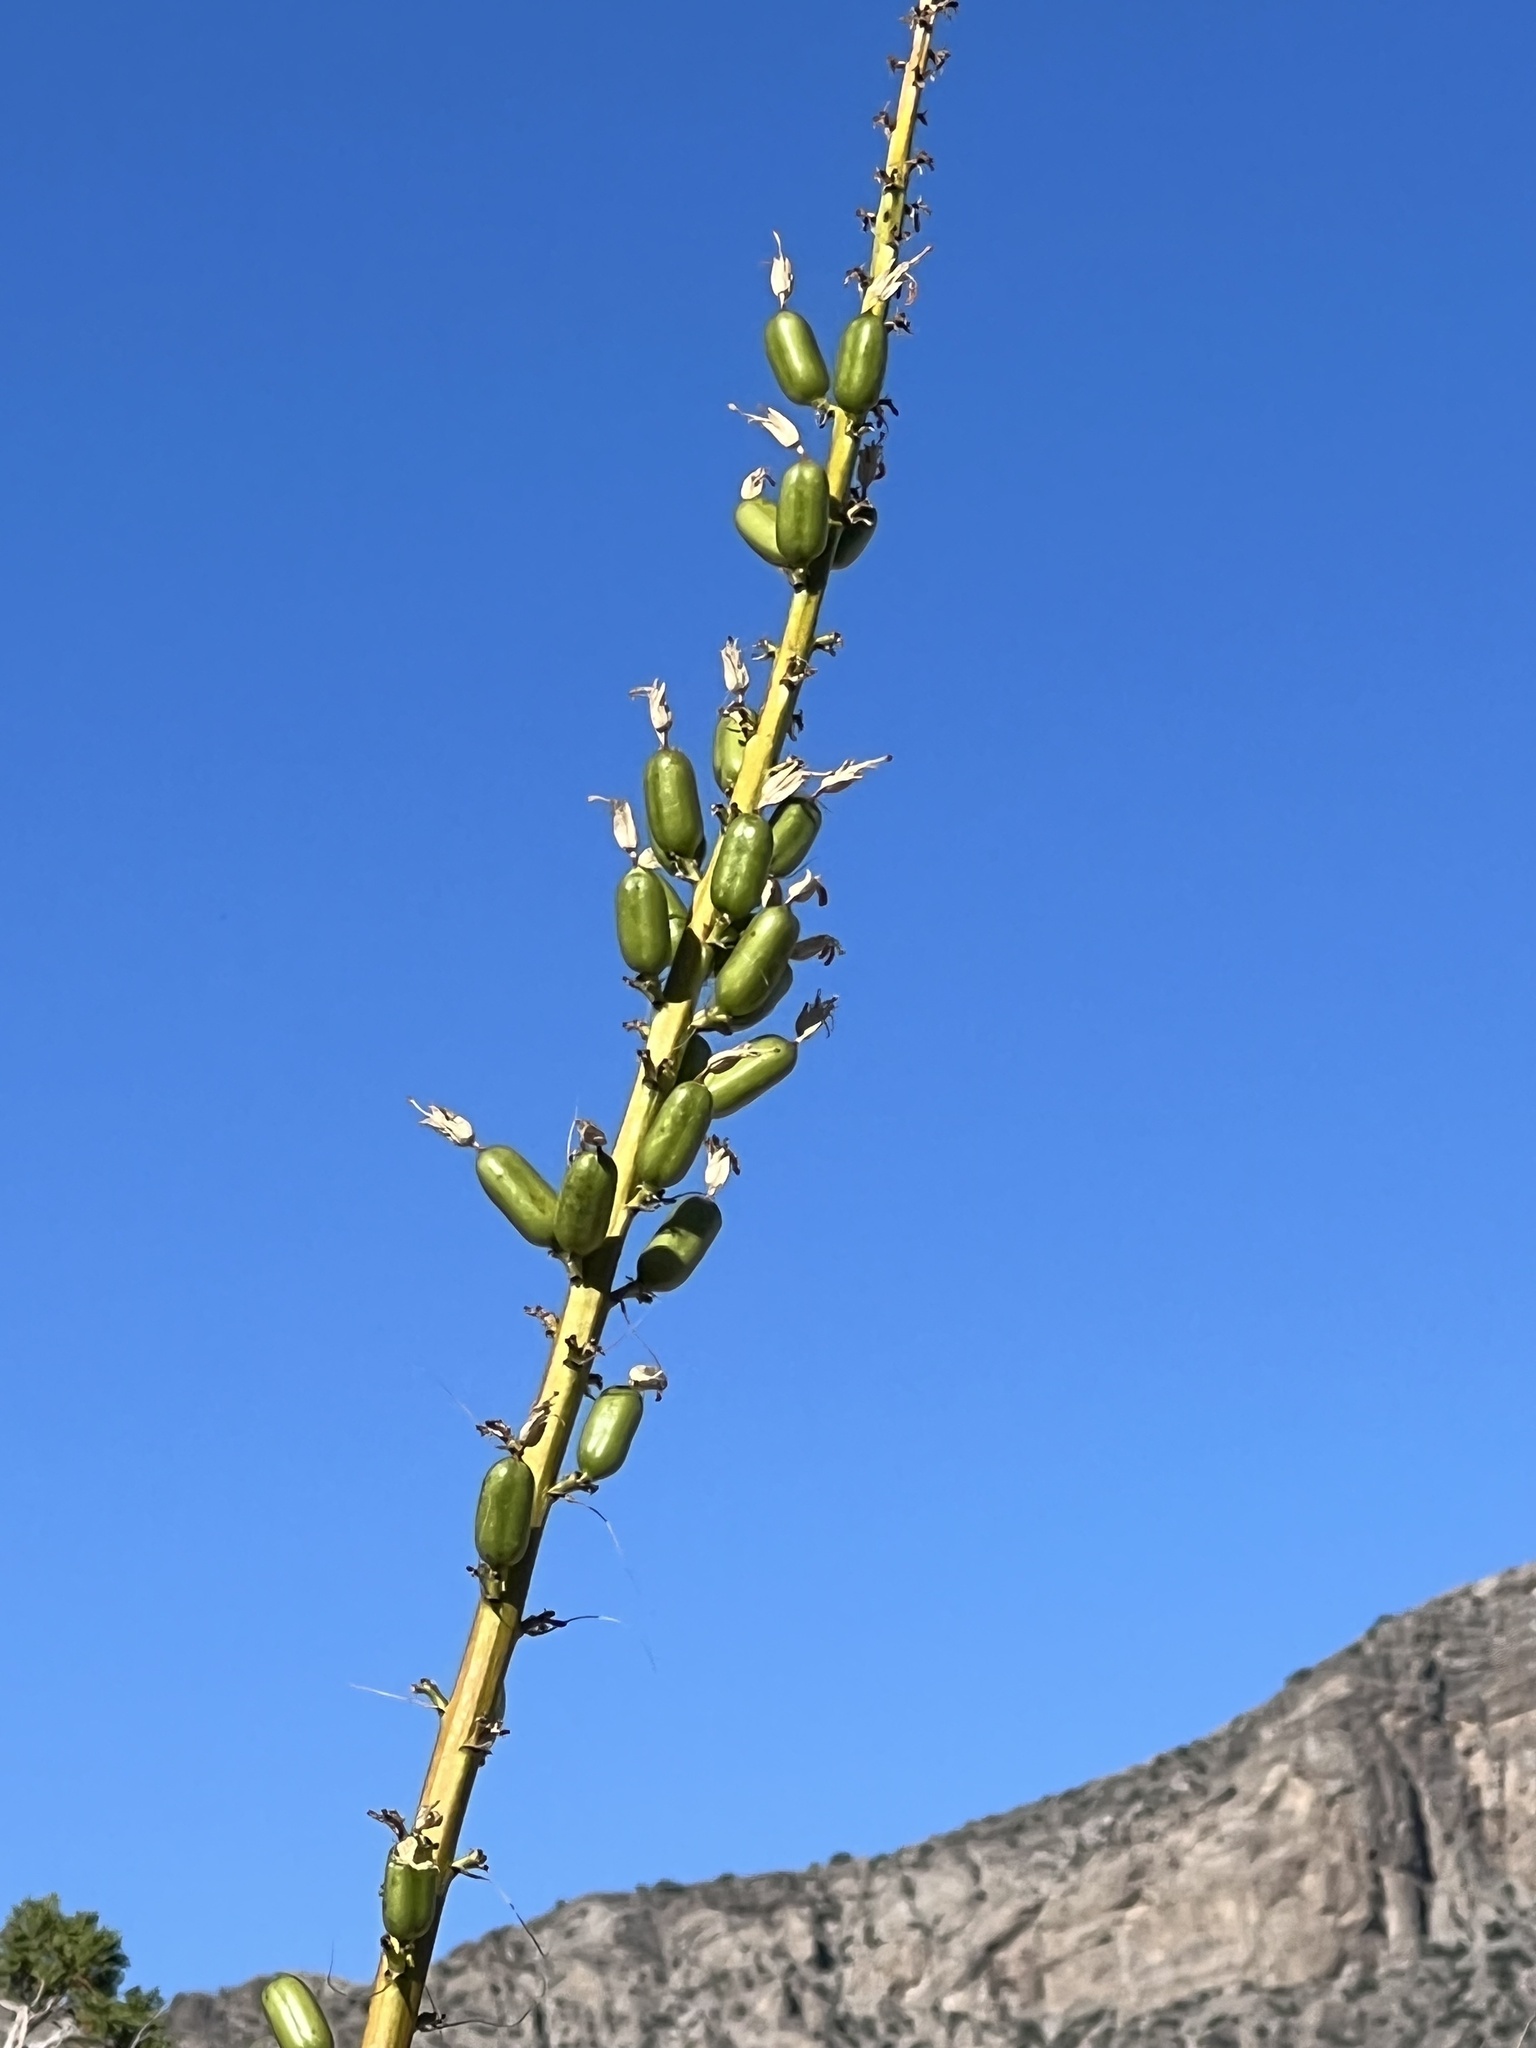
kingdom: Plantae
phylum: Tracheophyta
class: Liliopsida
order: Asparagales
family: Asparagaceae
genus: Agave
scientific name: Agave utahensis
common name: Utah agave
